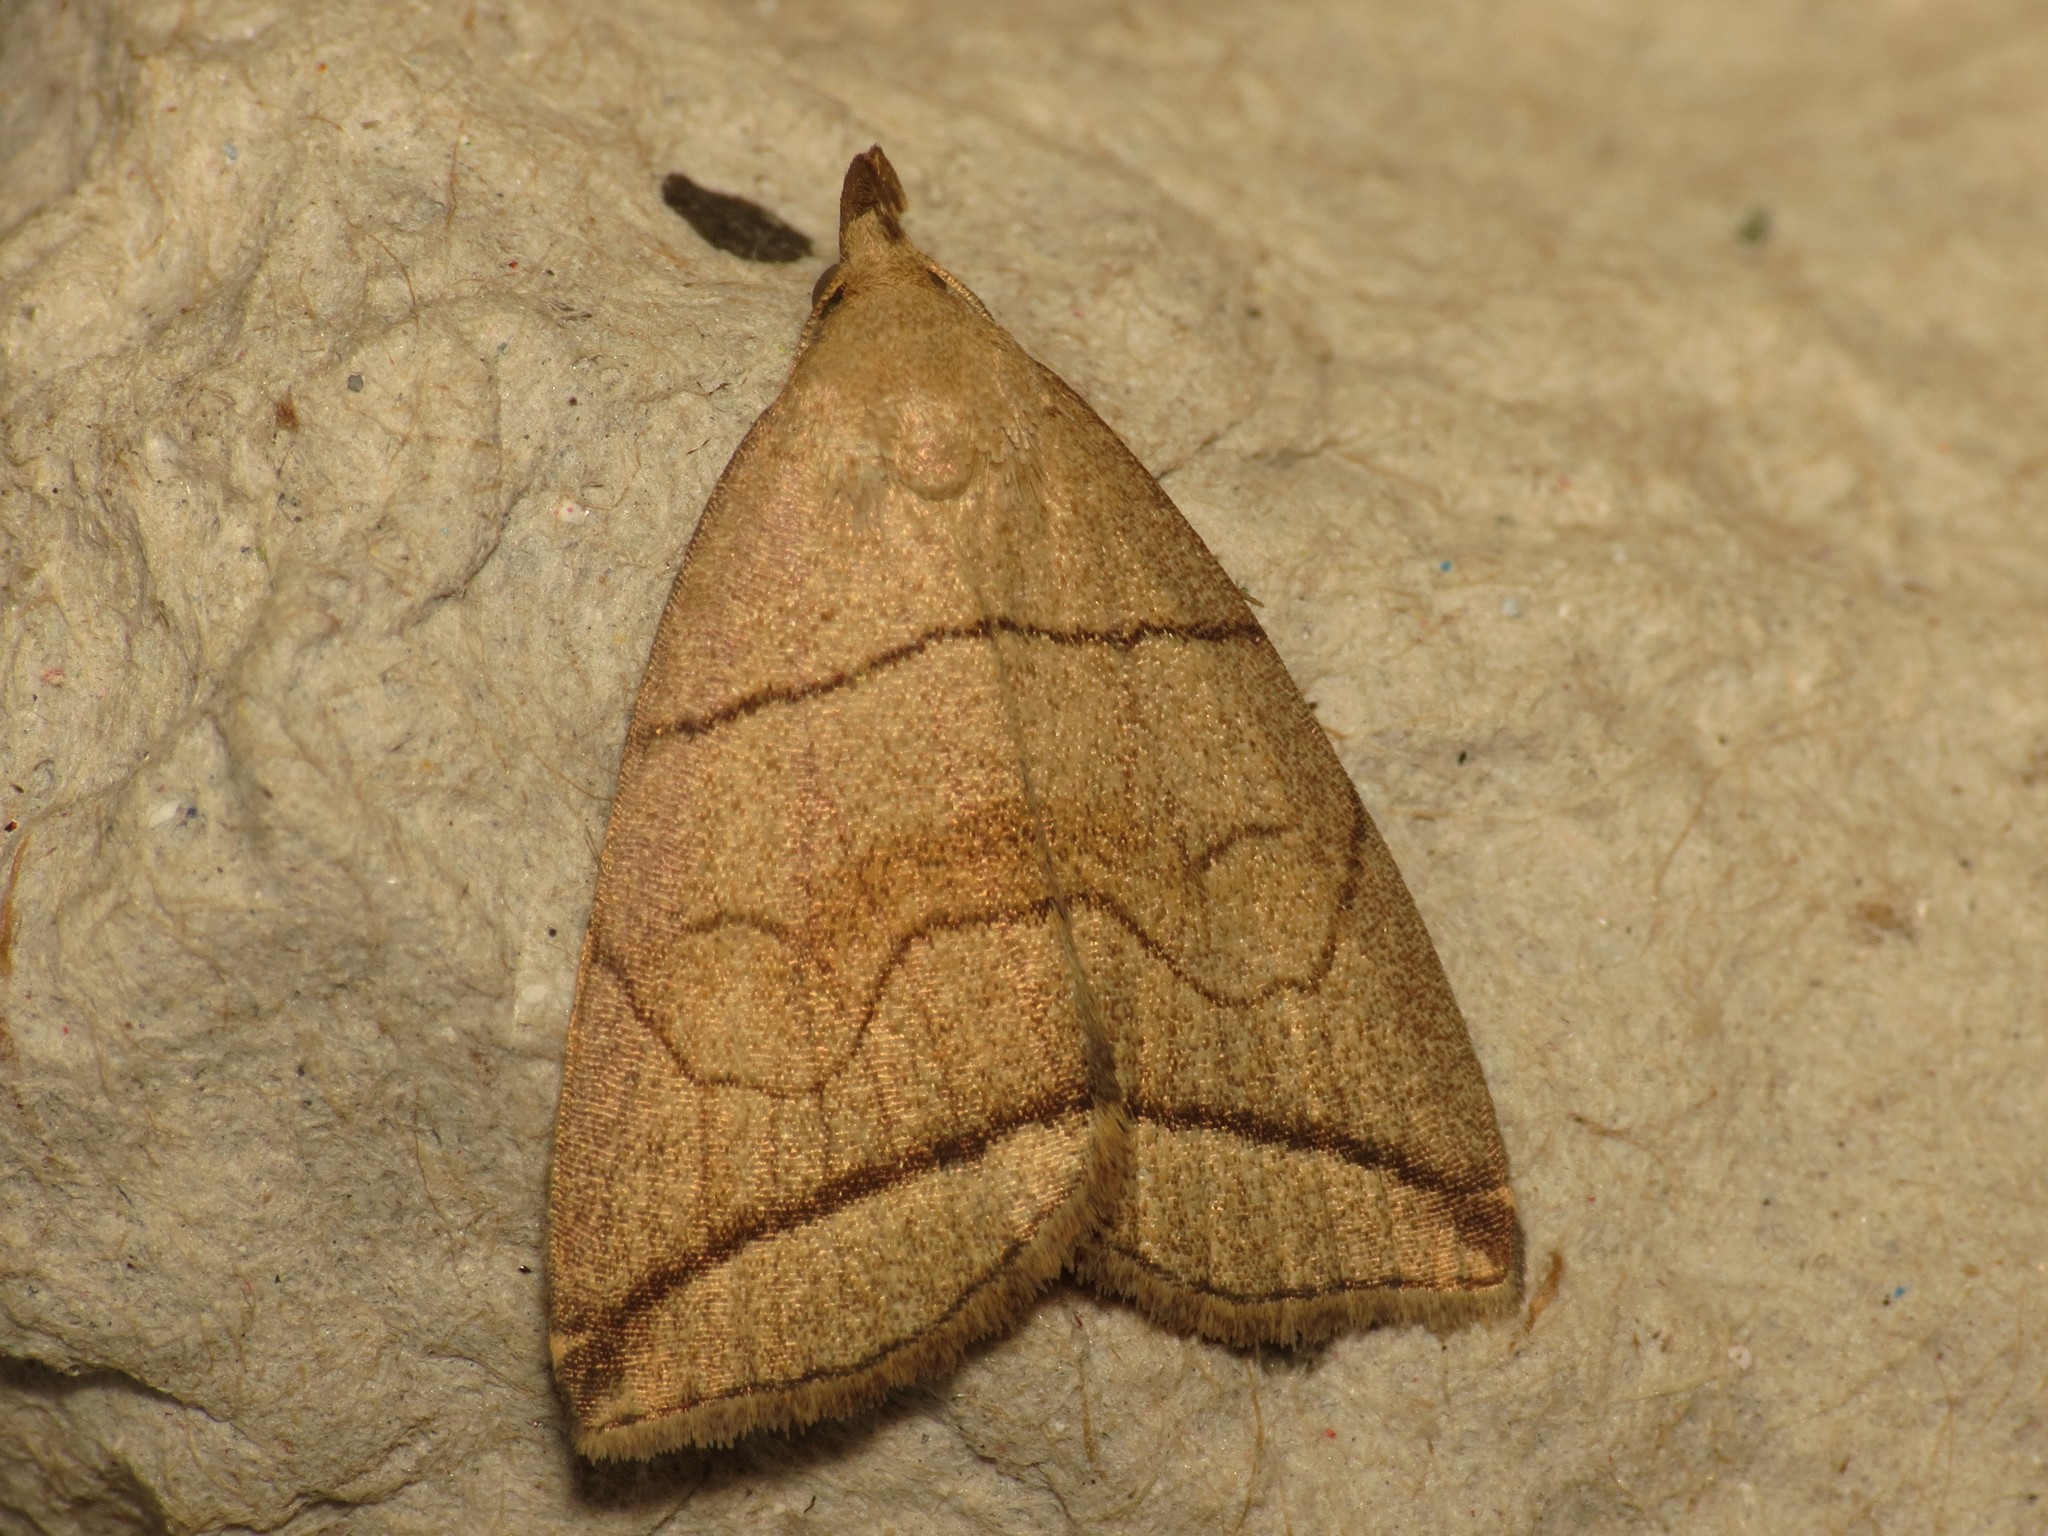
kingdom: Animalia
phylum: Arthropoda
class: Insecta
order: Lepidoptera
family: Erebidae
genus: Herminia
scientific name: Herminia grisealis
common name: Small fan-foot
